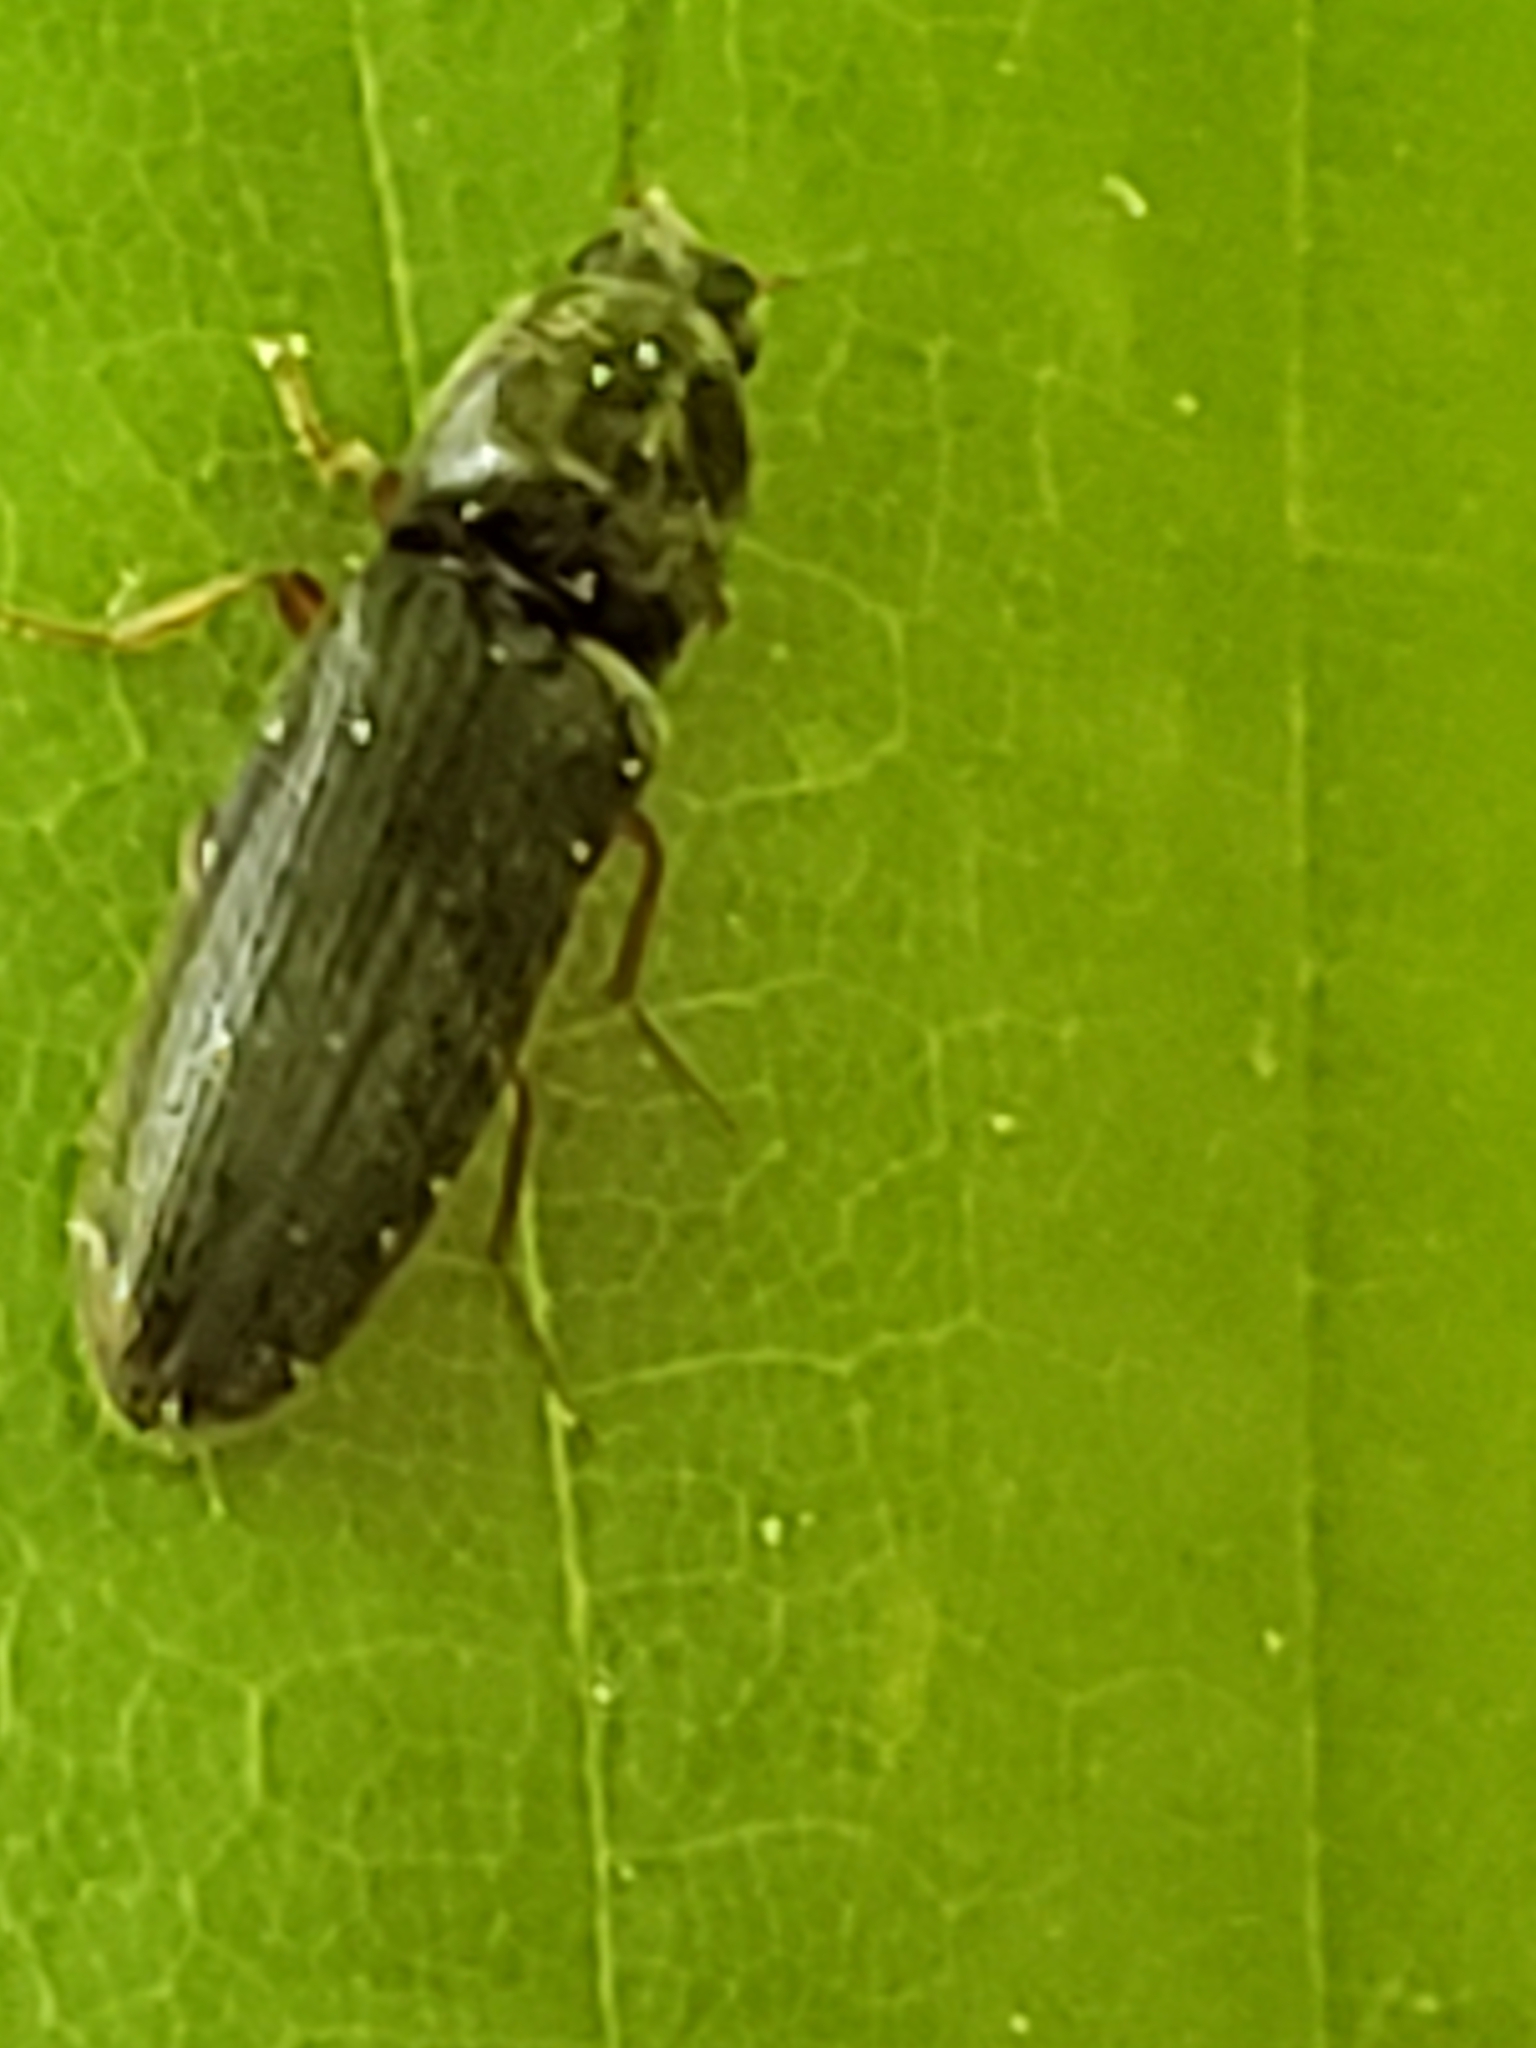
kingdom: Animalia
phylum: Arthropoda
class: Insecta
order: Coleoptera
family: Elateridae
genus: Limonius
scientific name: Limonius quercinus
